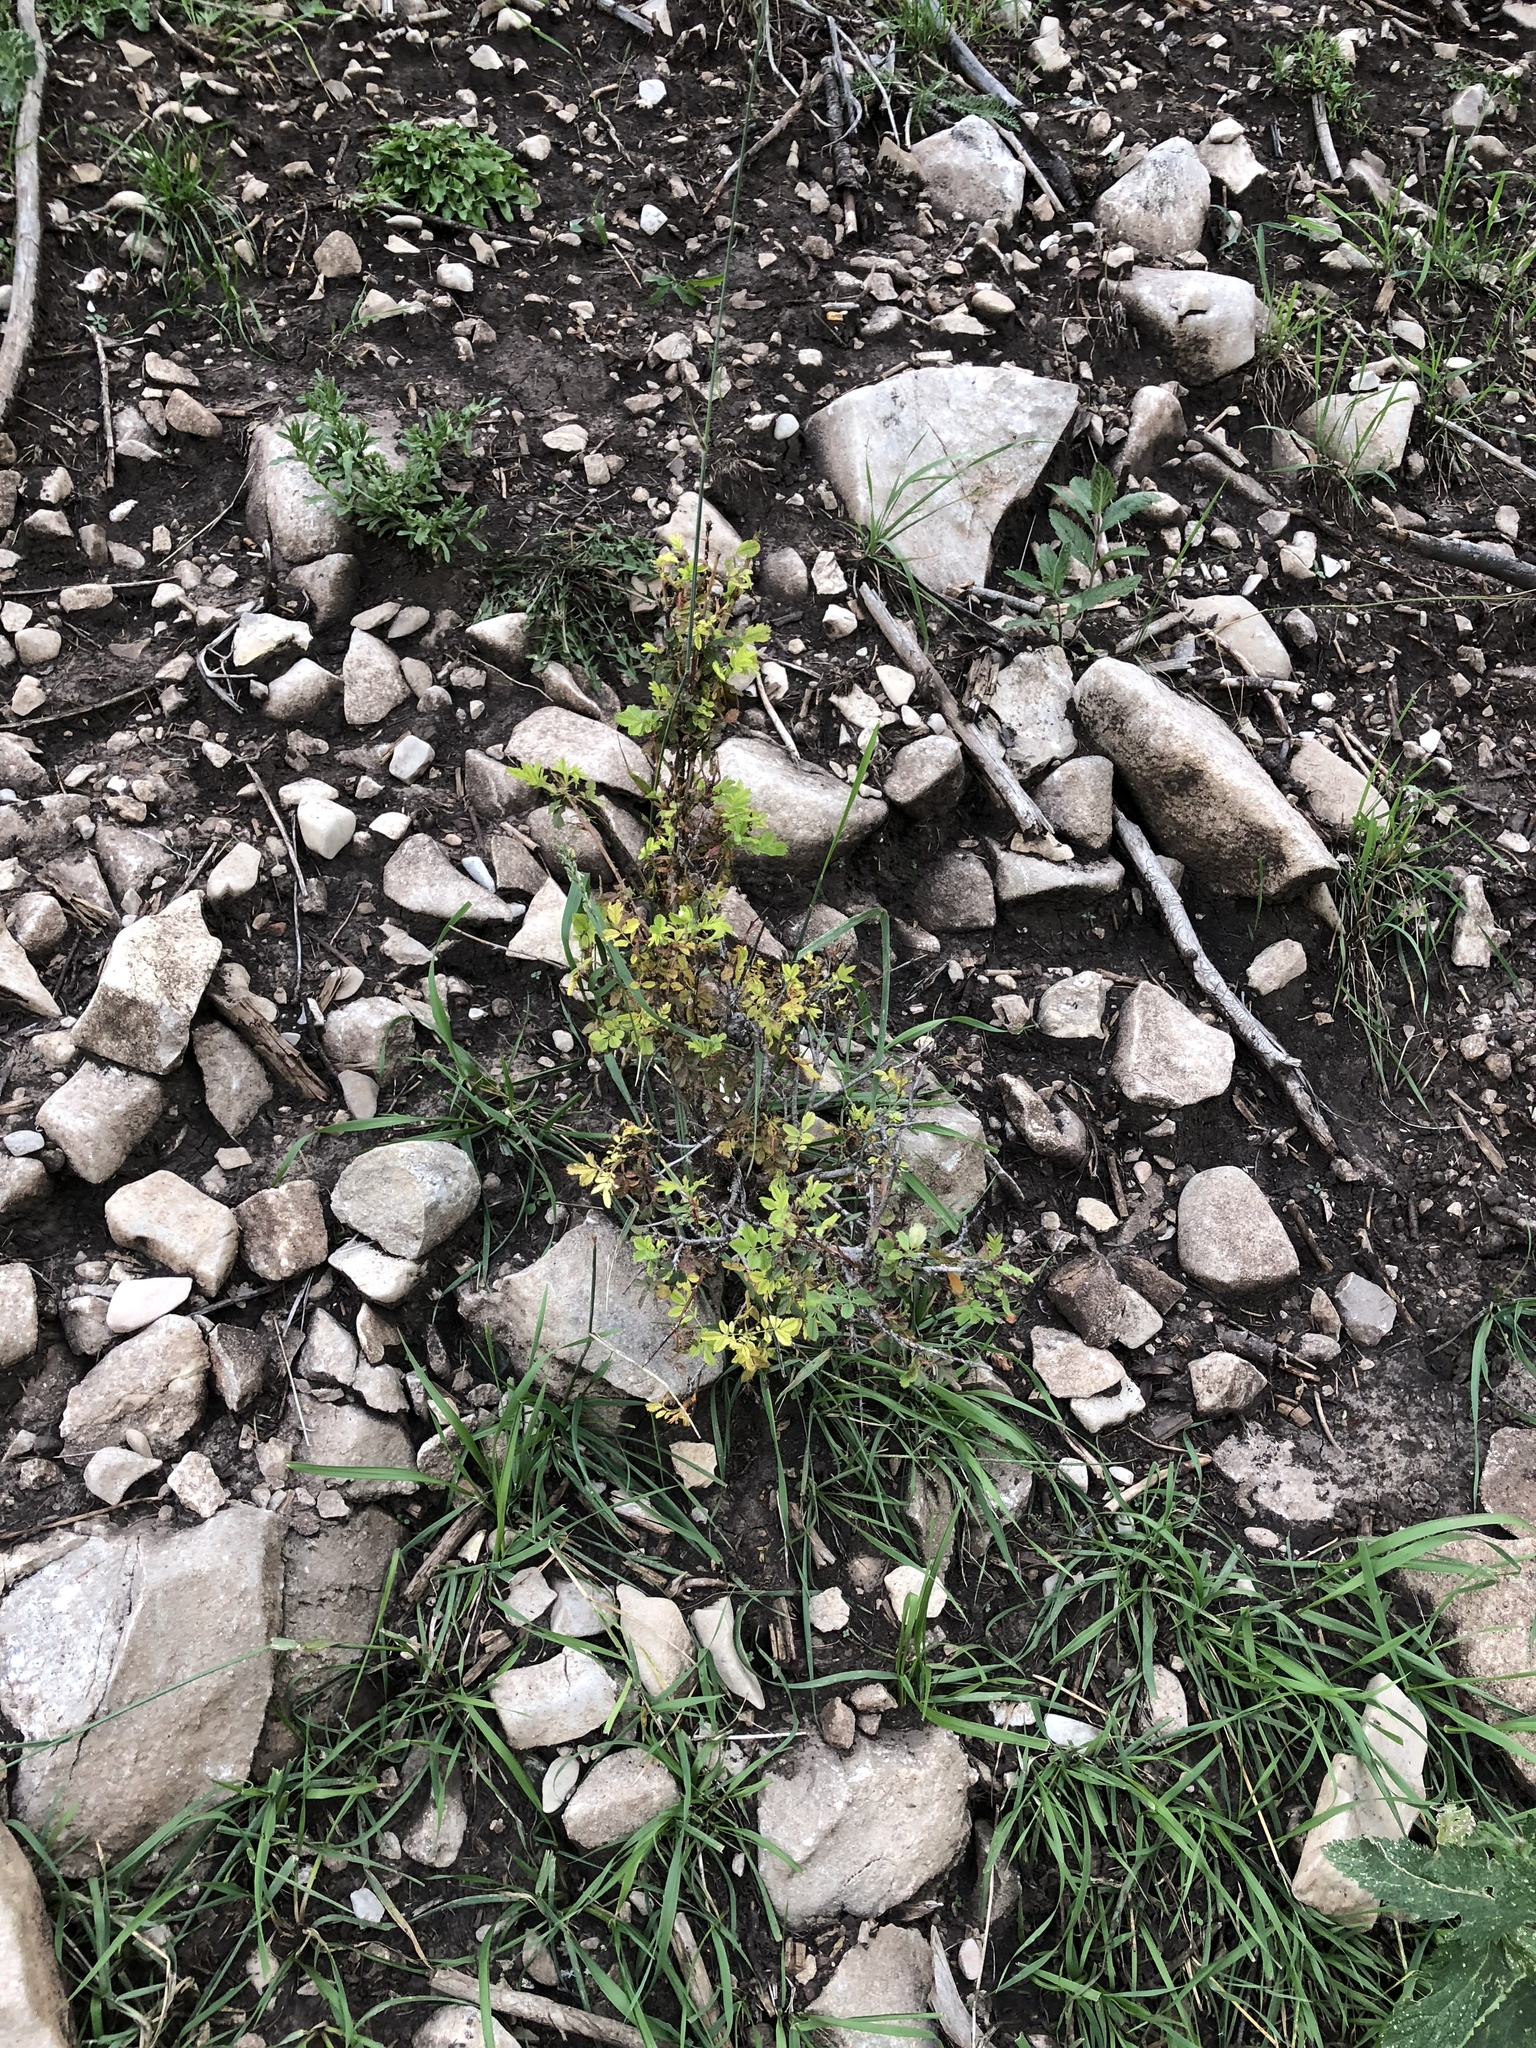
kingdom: Plantae
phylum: Tracheophyta
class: Magnoliopsida
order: Rosales
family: Rosaceae
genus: Rosa
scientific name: Rosa woodsii
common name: Woods's rose
